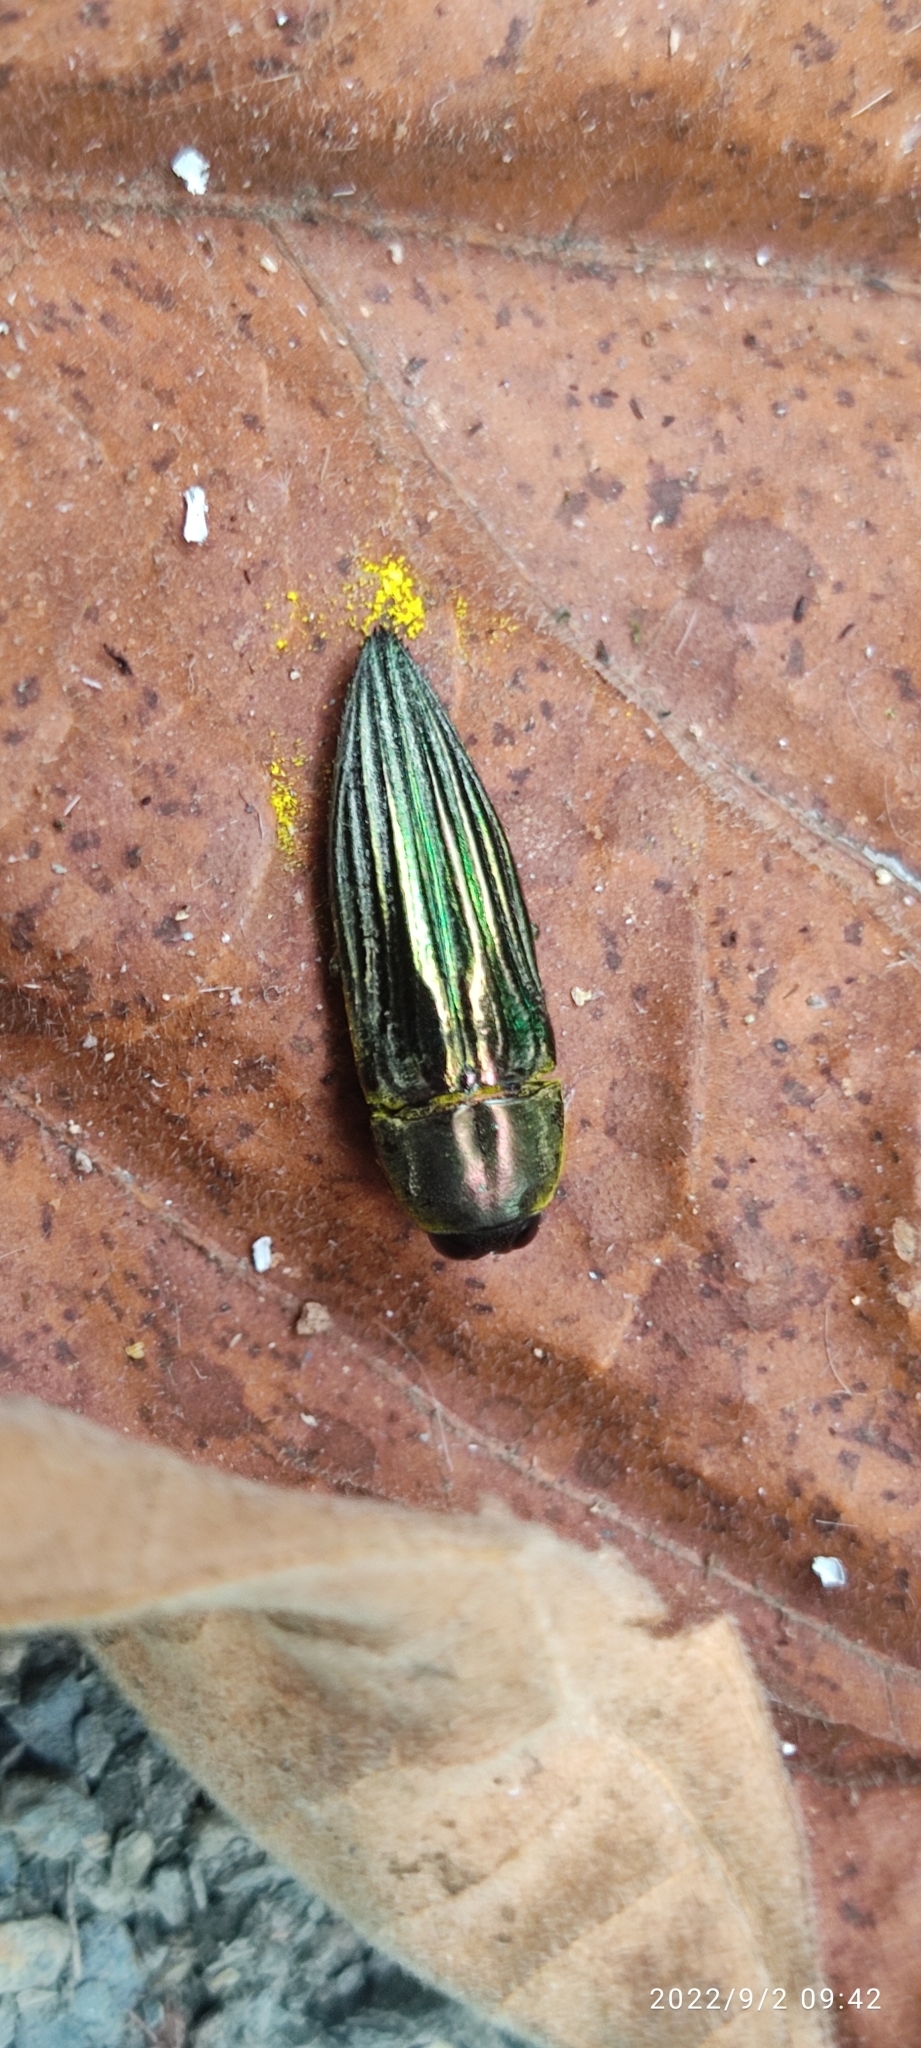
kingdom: Animalia
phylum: Arthropoda
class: Insecta
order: Coleoptera
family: Buprestidae
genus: Pelecopselaphus
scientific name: Pelecopselaphus blandus
